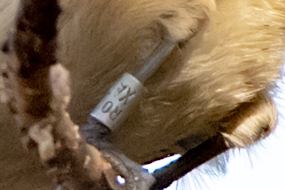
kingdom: Animalia
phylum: Chordata
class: Aves
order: Passeriformes
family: Paridae
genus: Poecile
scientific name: Poecile palustris
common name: Marsh tit
